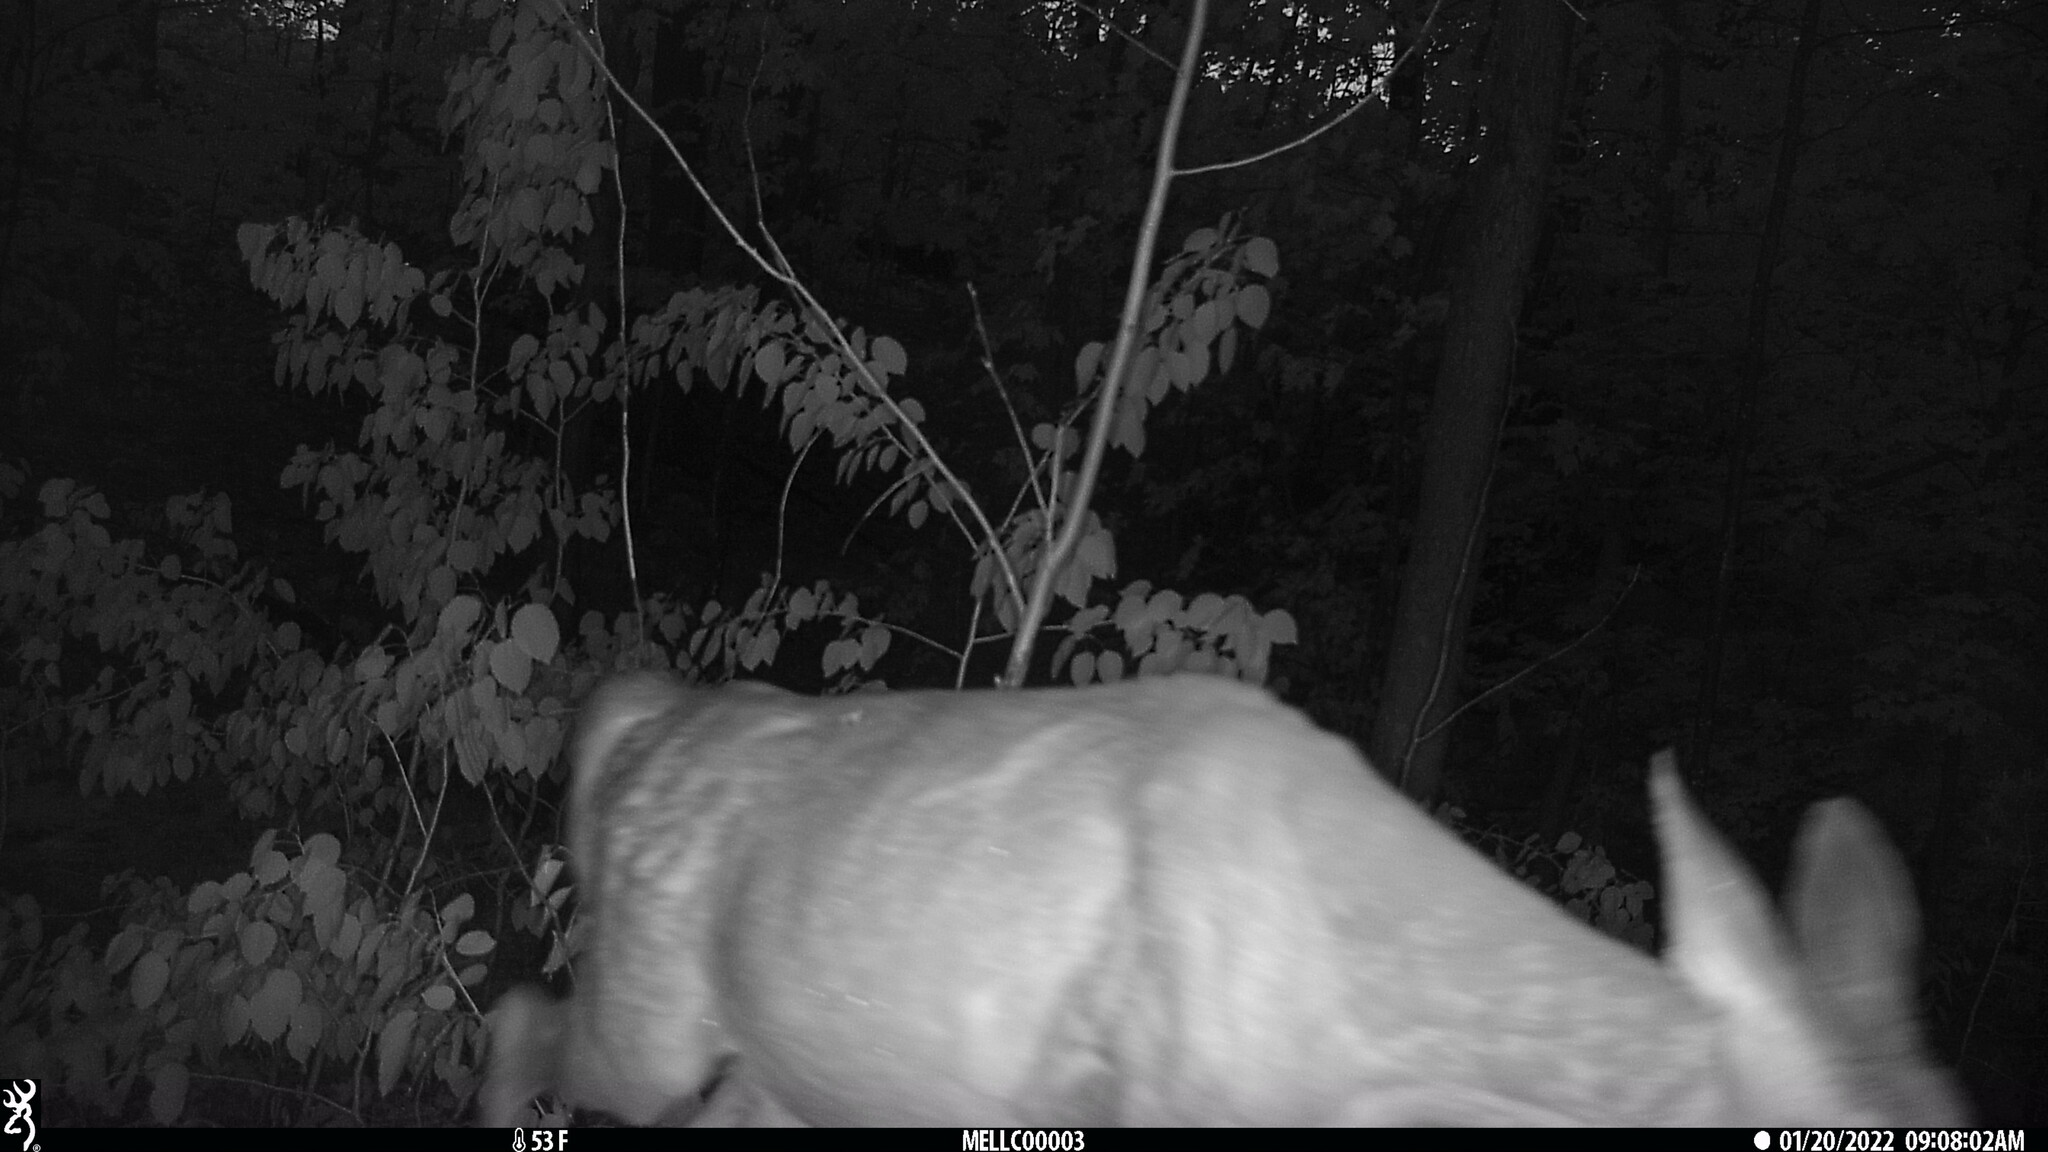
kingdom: Animalia
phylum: Chordata
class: Mammalia
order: Artiodactyla
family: Cervidae
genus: Odocoileus
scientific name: Odocoileus virginianus
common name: White-tailed deer
